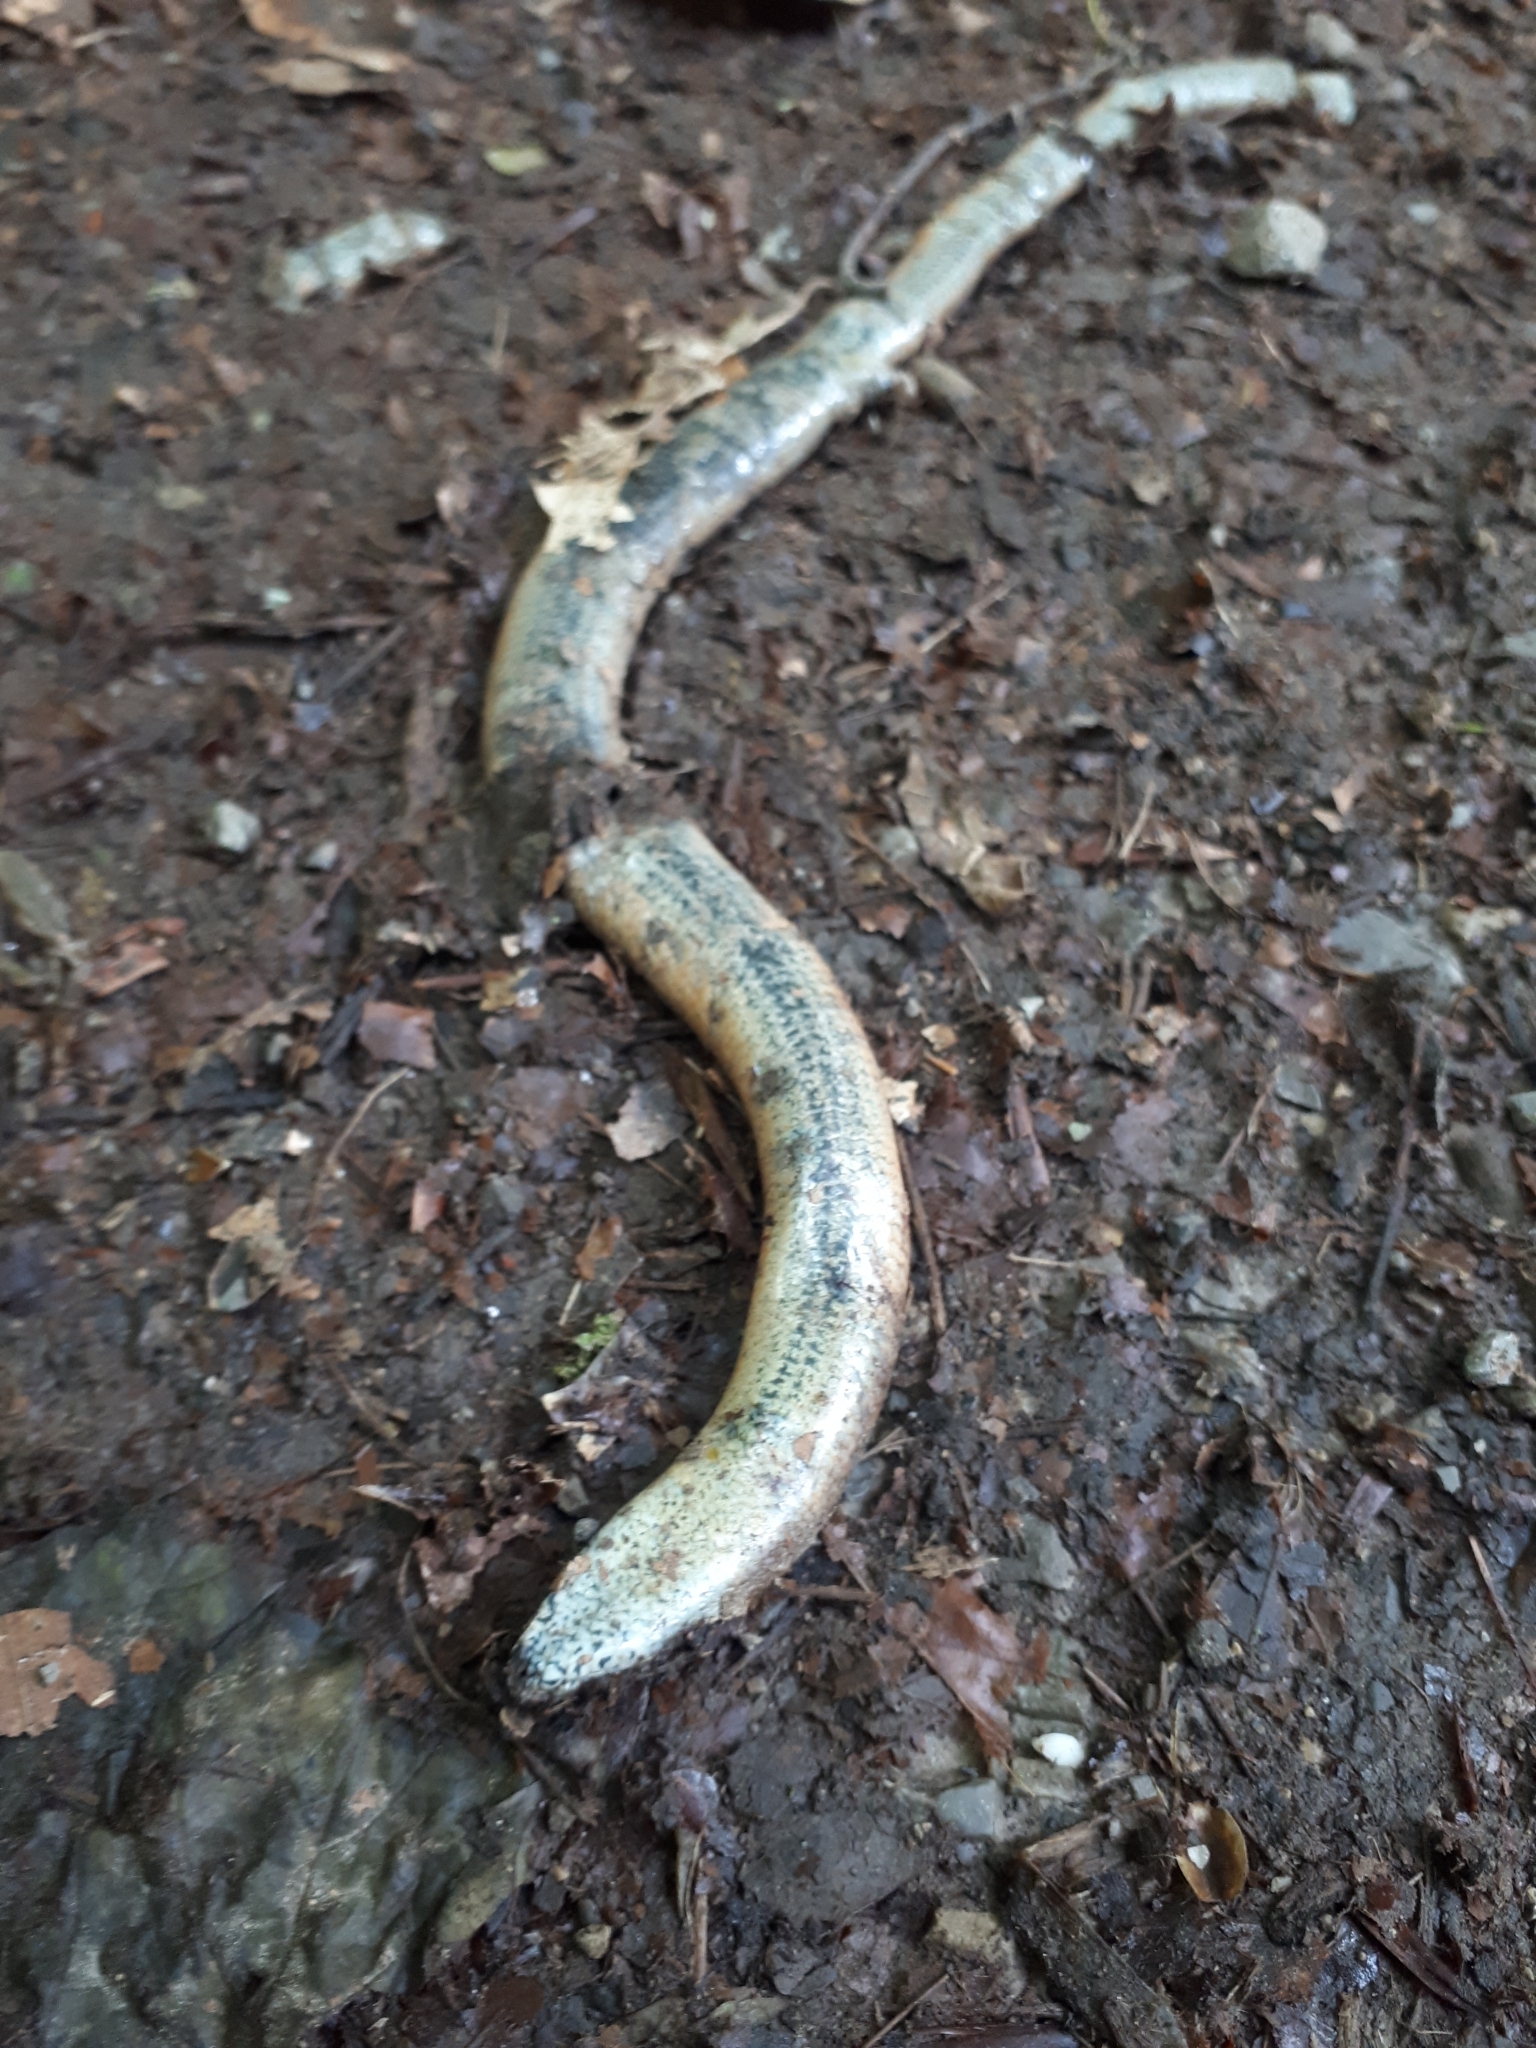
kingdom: Animalia
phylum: Chordata
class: Squamata
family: Anguidae
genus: Anguis
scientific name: Anguis fragilis
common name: Slow worm
